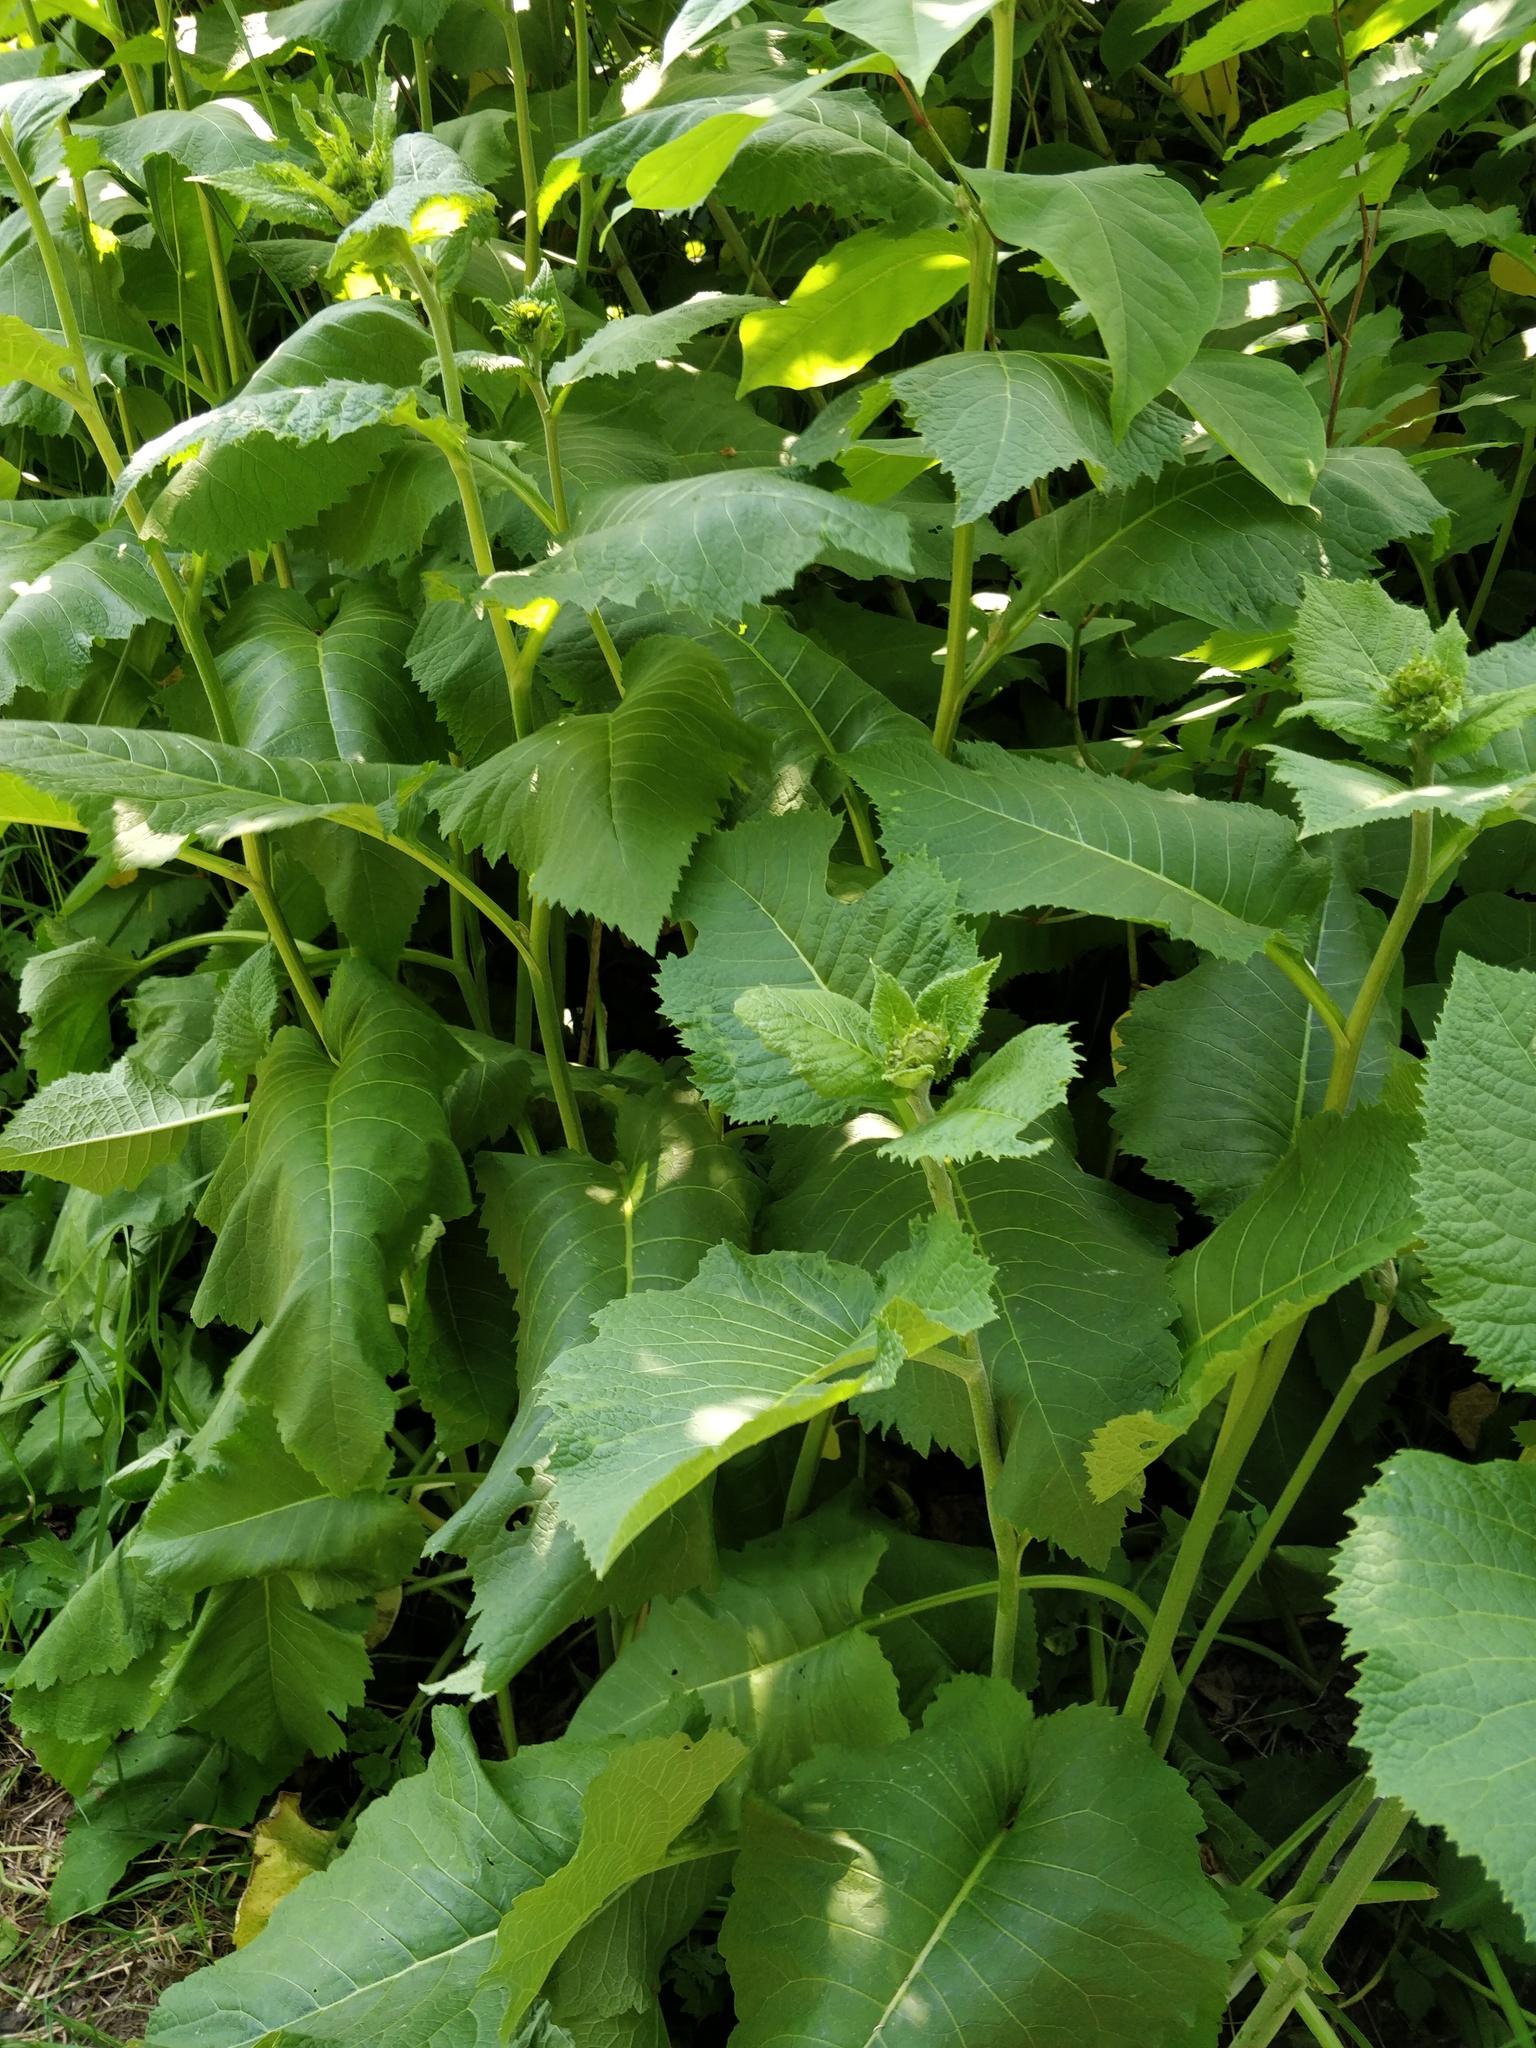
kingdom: Plantae
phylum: Tracheophyta
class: Magnoliopsida
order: Asterales
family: Asteraceae
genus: Telekia
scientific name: Telekia speciosa
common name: Yellow oxeye
